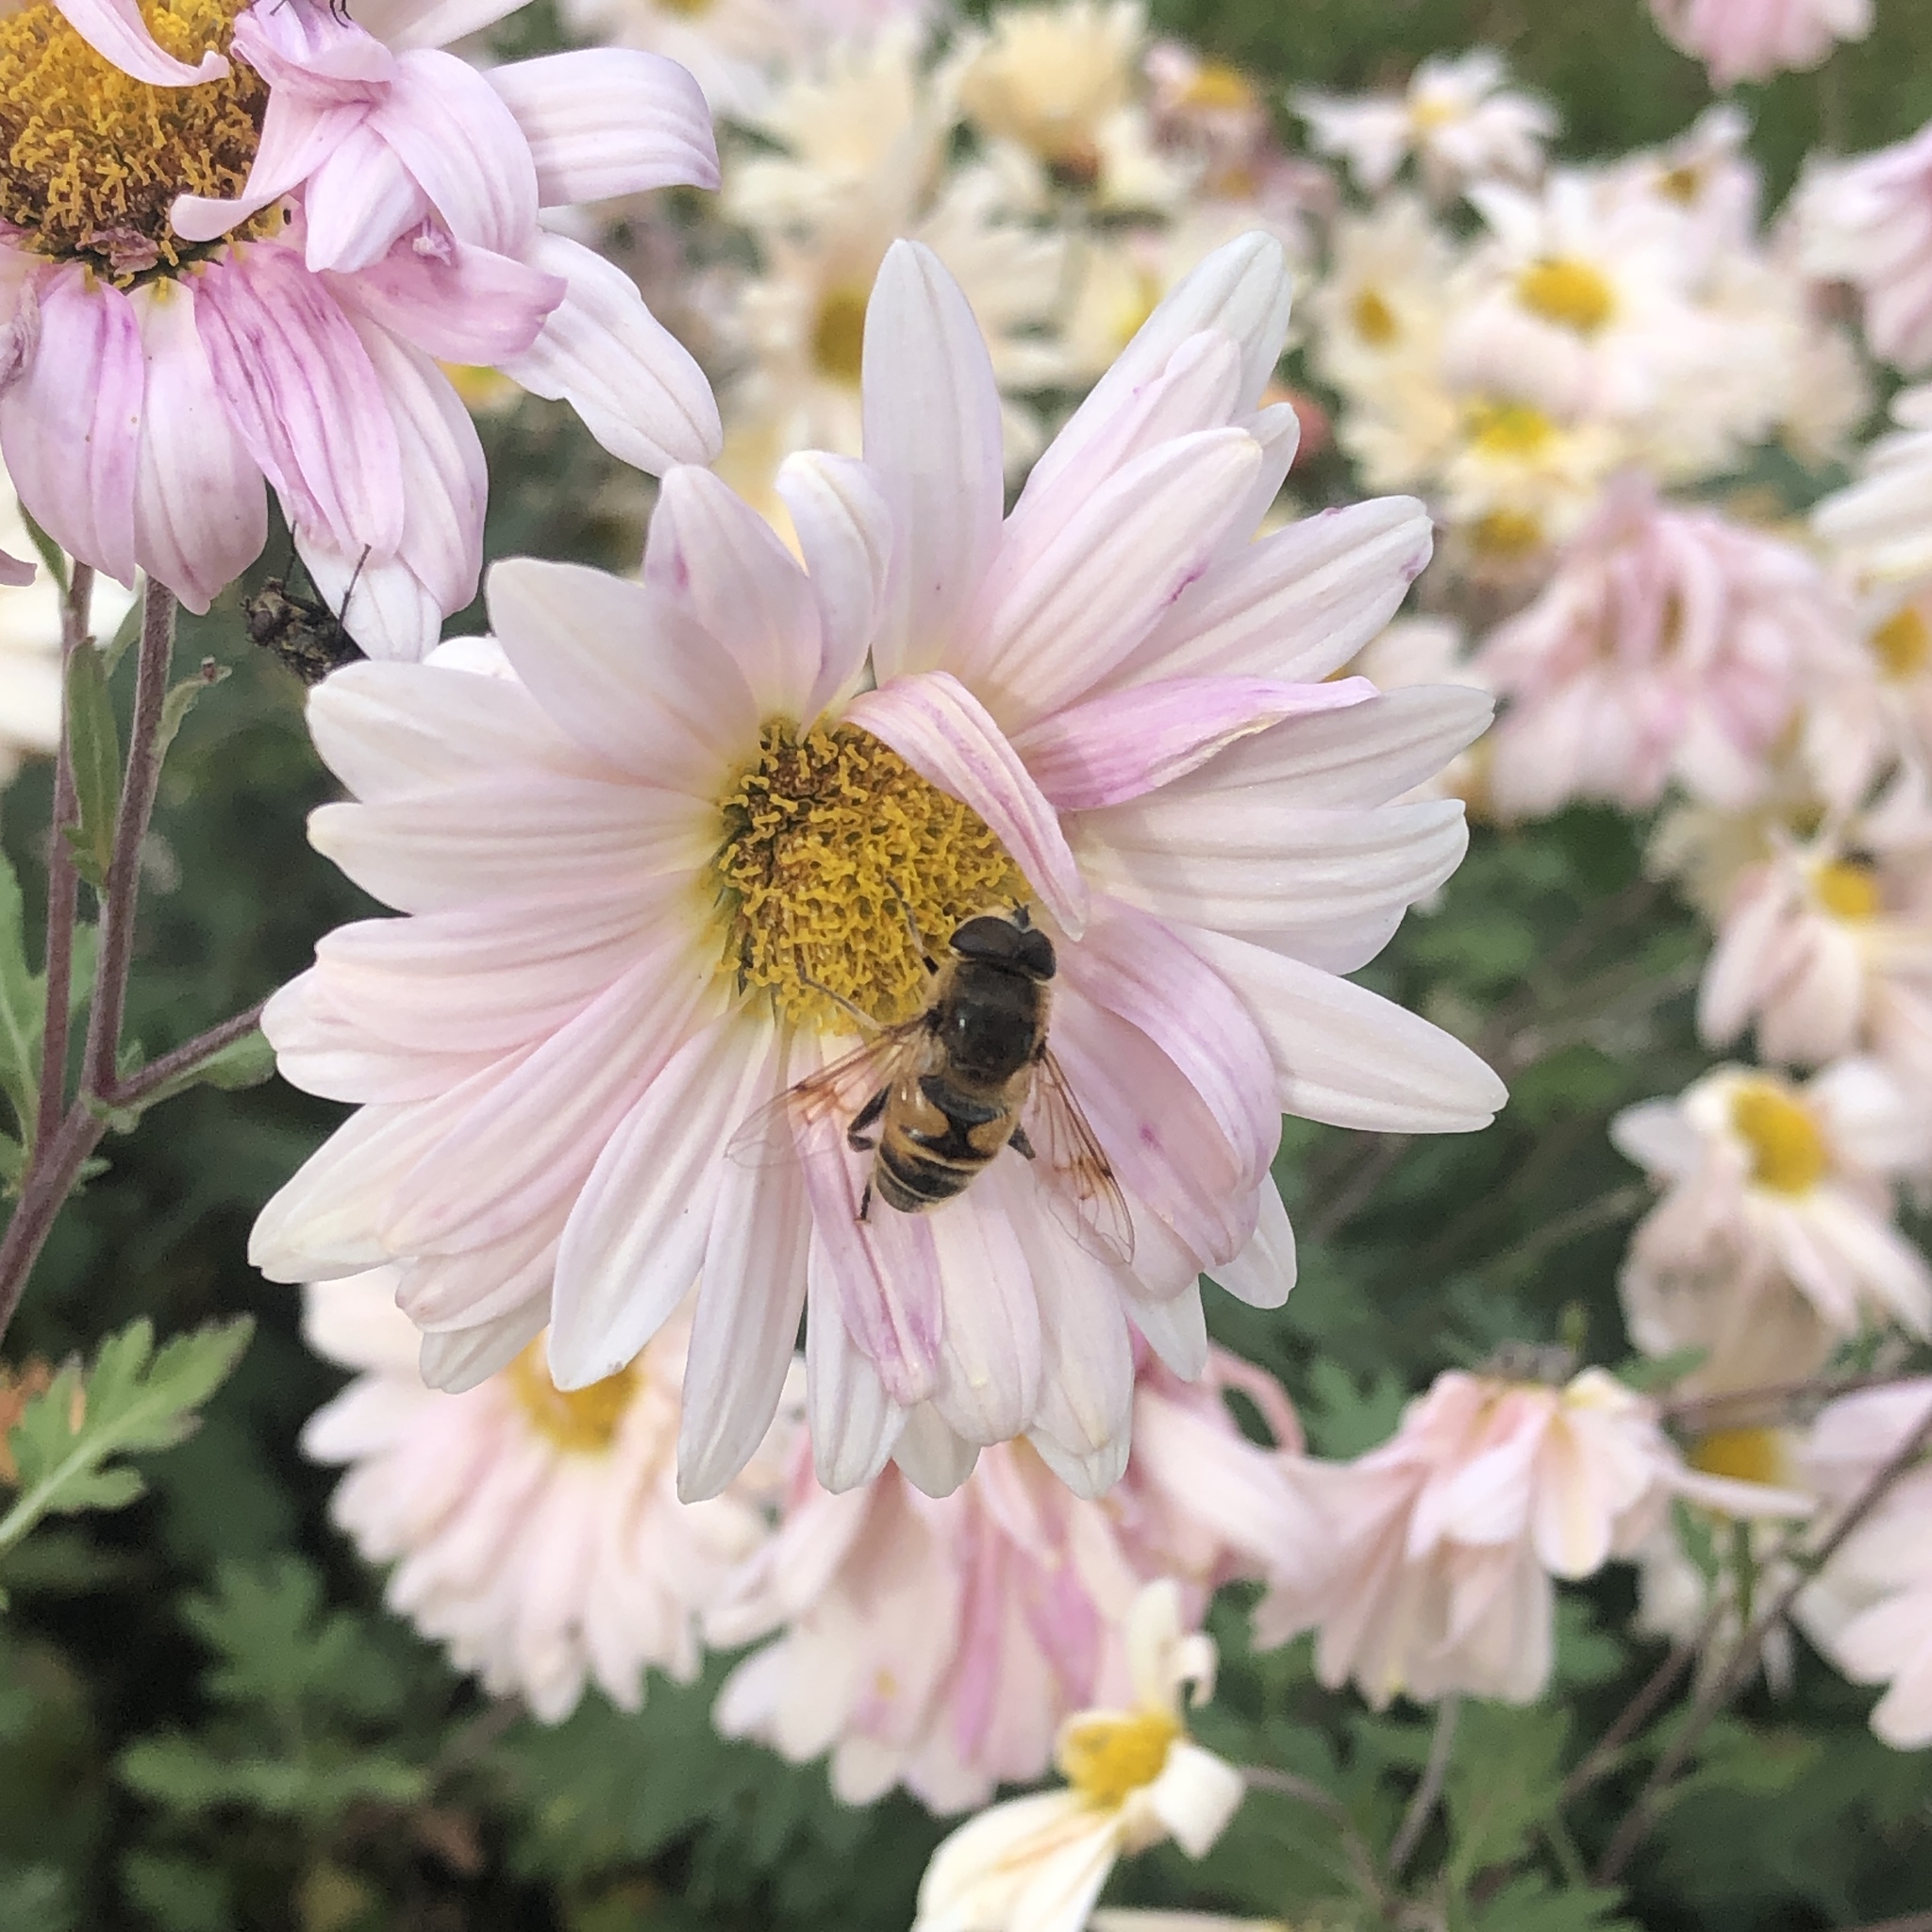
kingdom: Animalia
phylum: Arthropoda
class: Insecta
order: Diptera
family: Syrphidae
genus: Eristalis
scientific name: Eristalis tenax
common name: Drone fly
